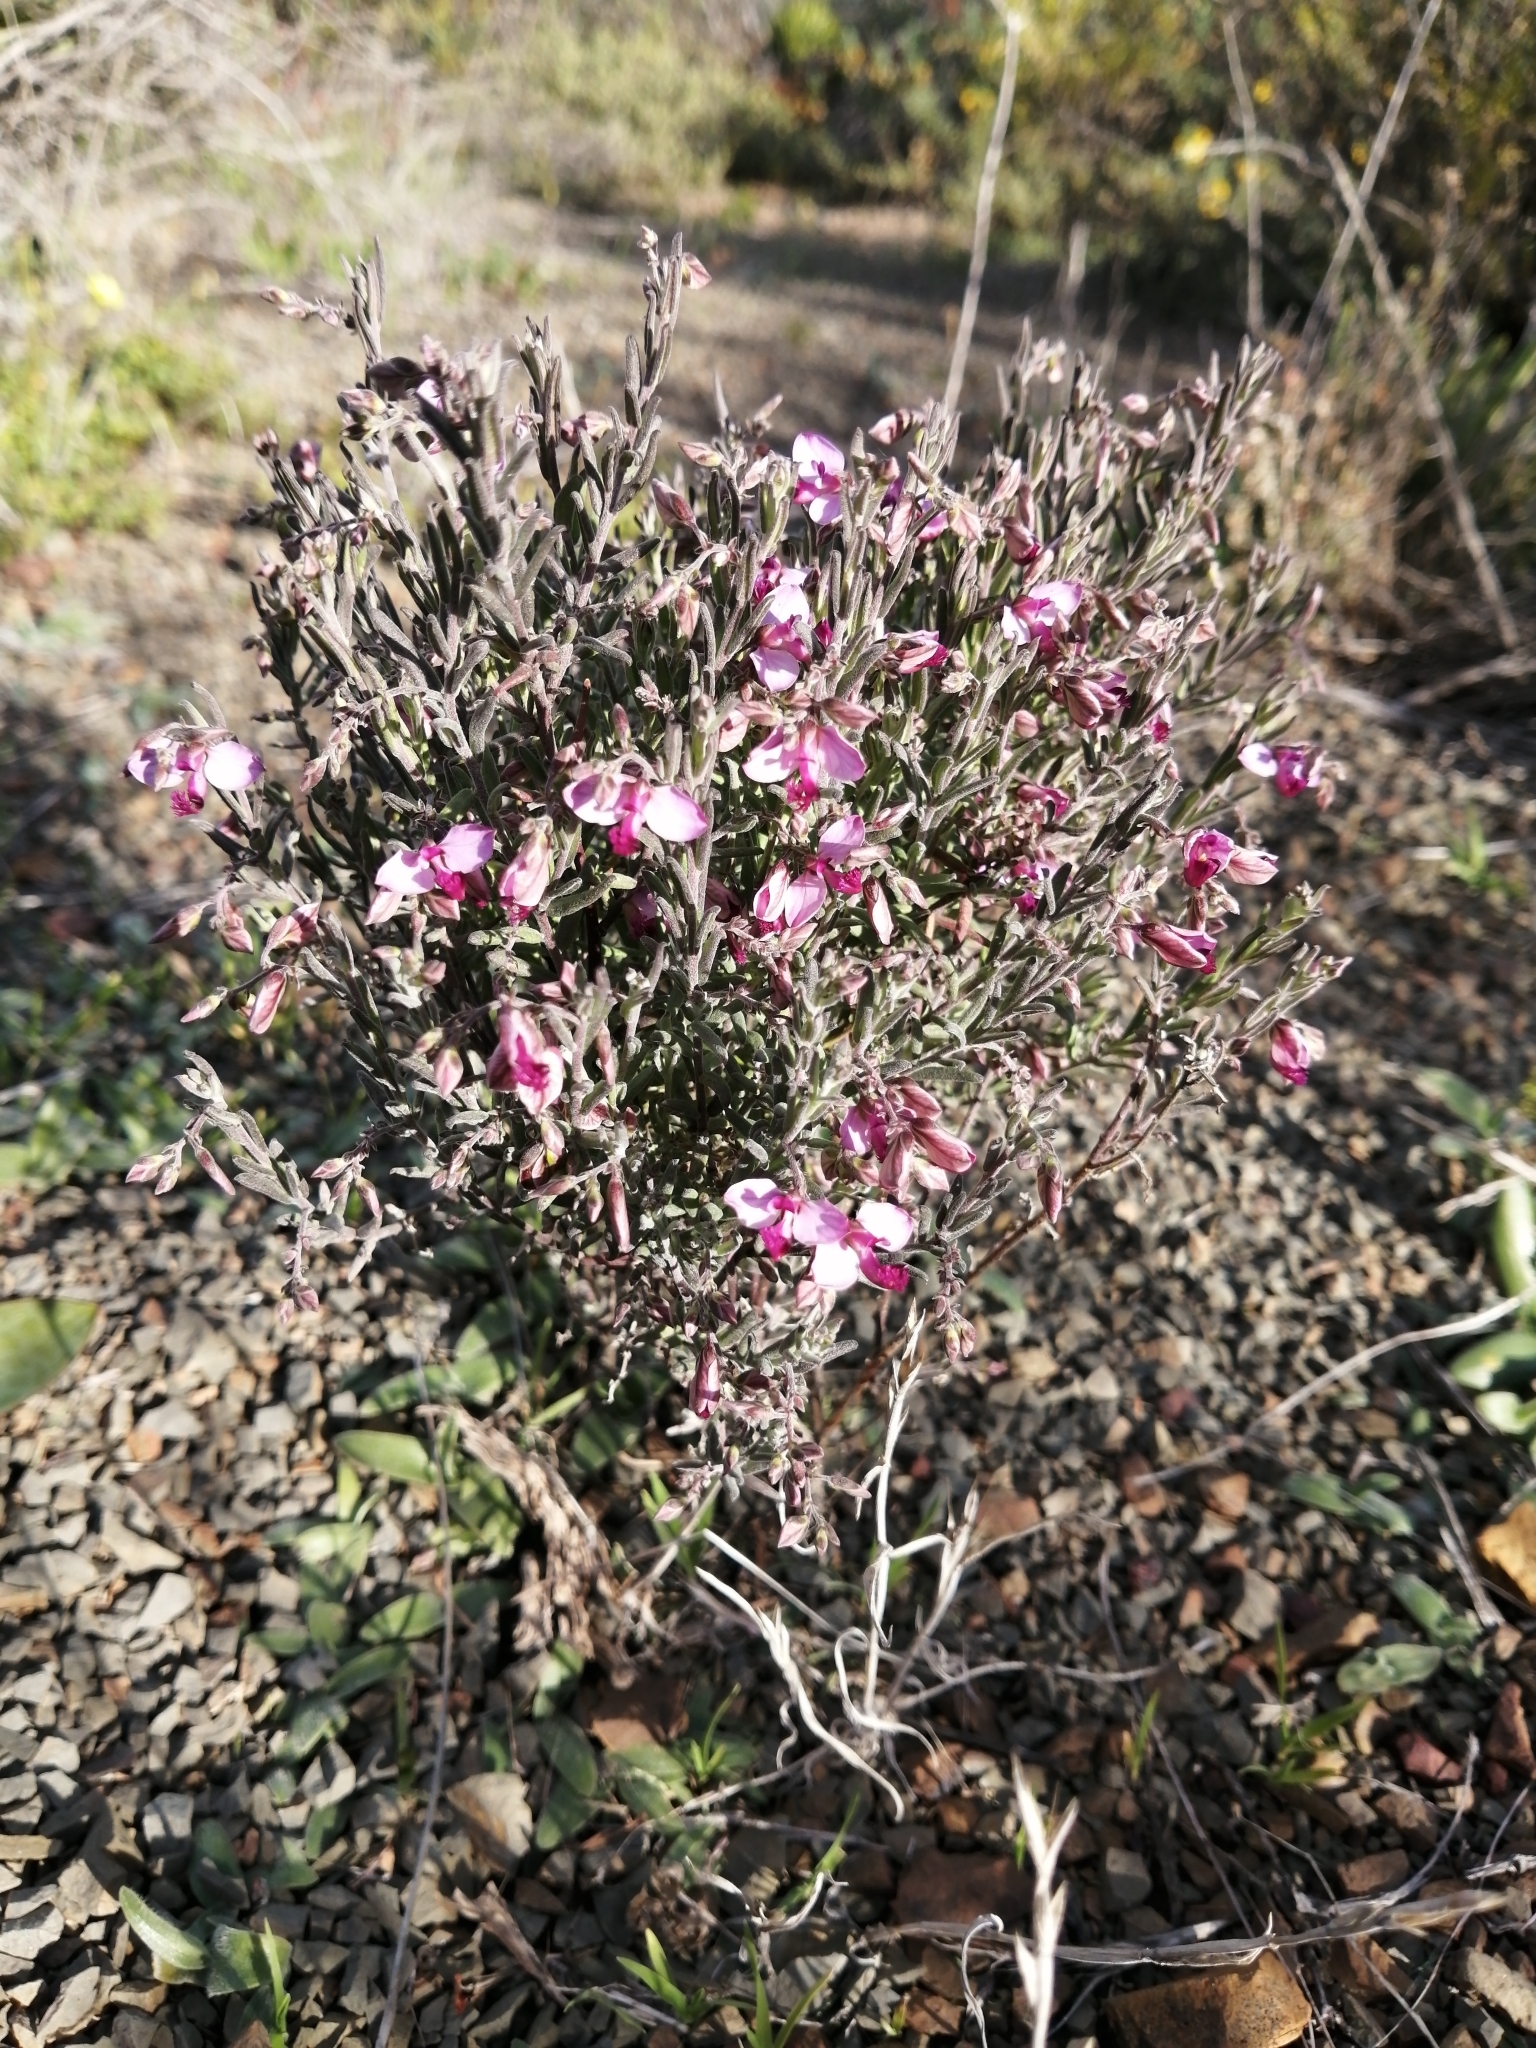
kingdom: Plantae
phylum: Tracheophyta
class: Magnoliopsida
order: Fabales
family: Polygalaceae
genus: Polygala
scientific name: Polygala scabra
